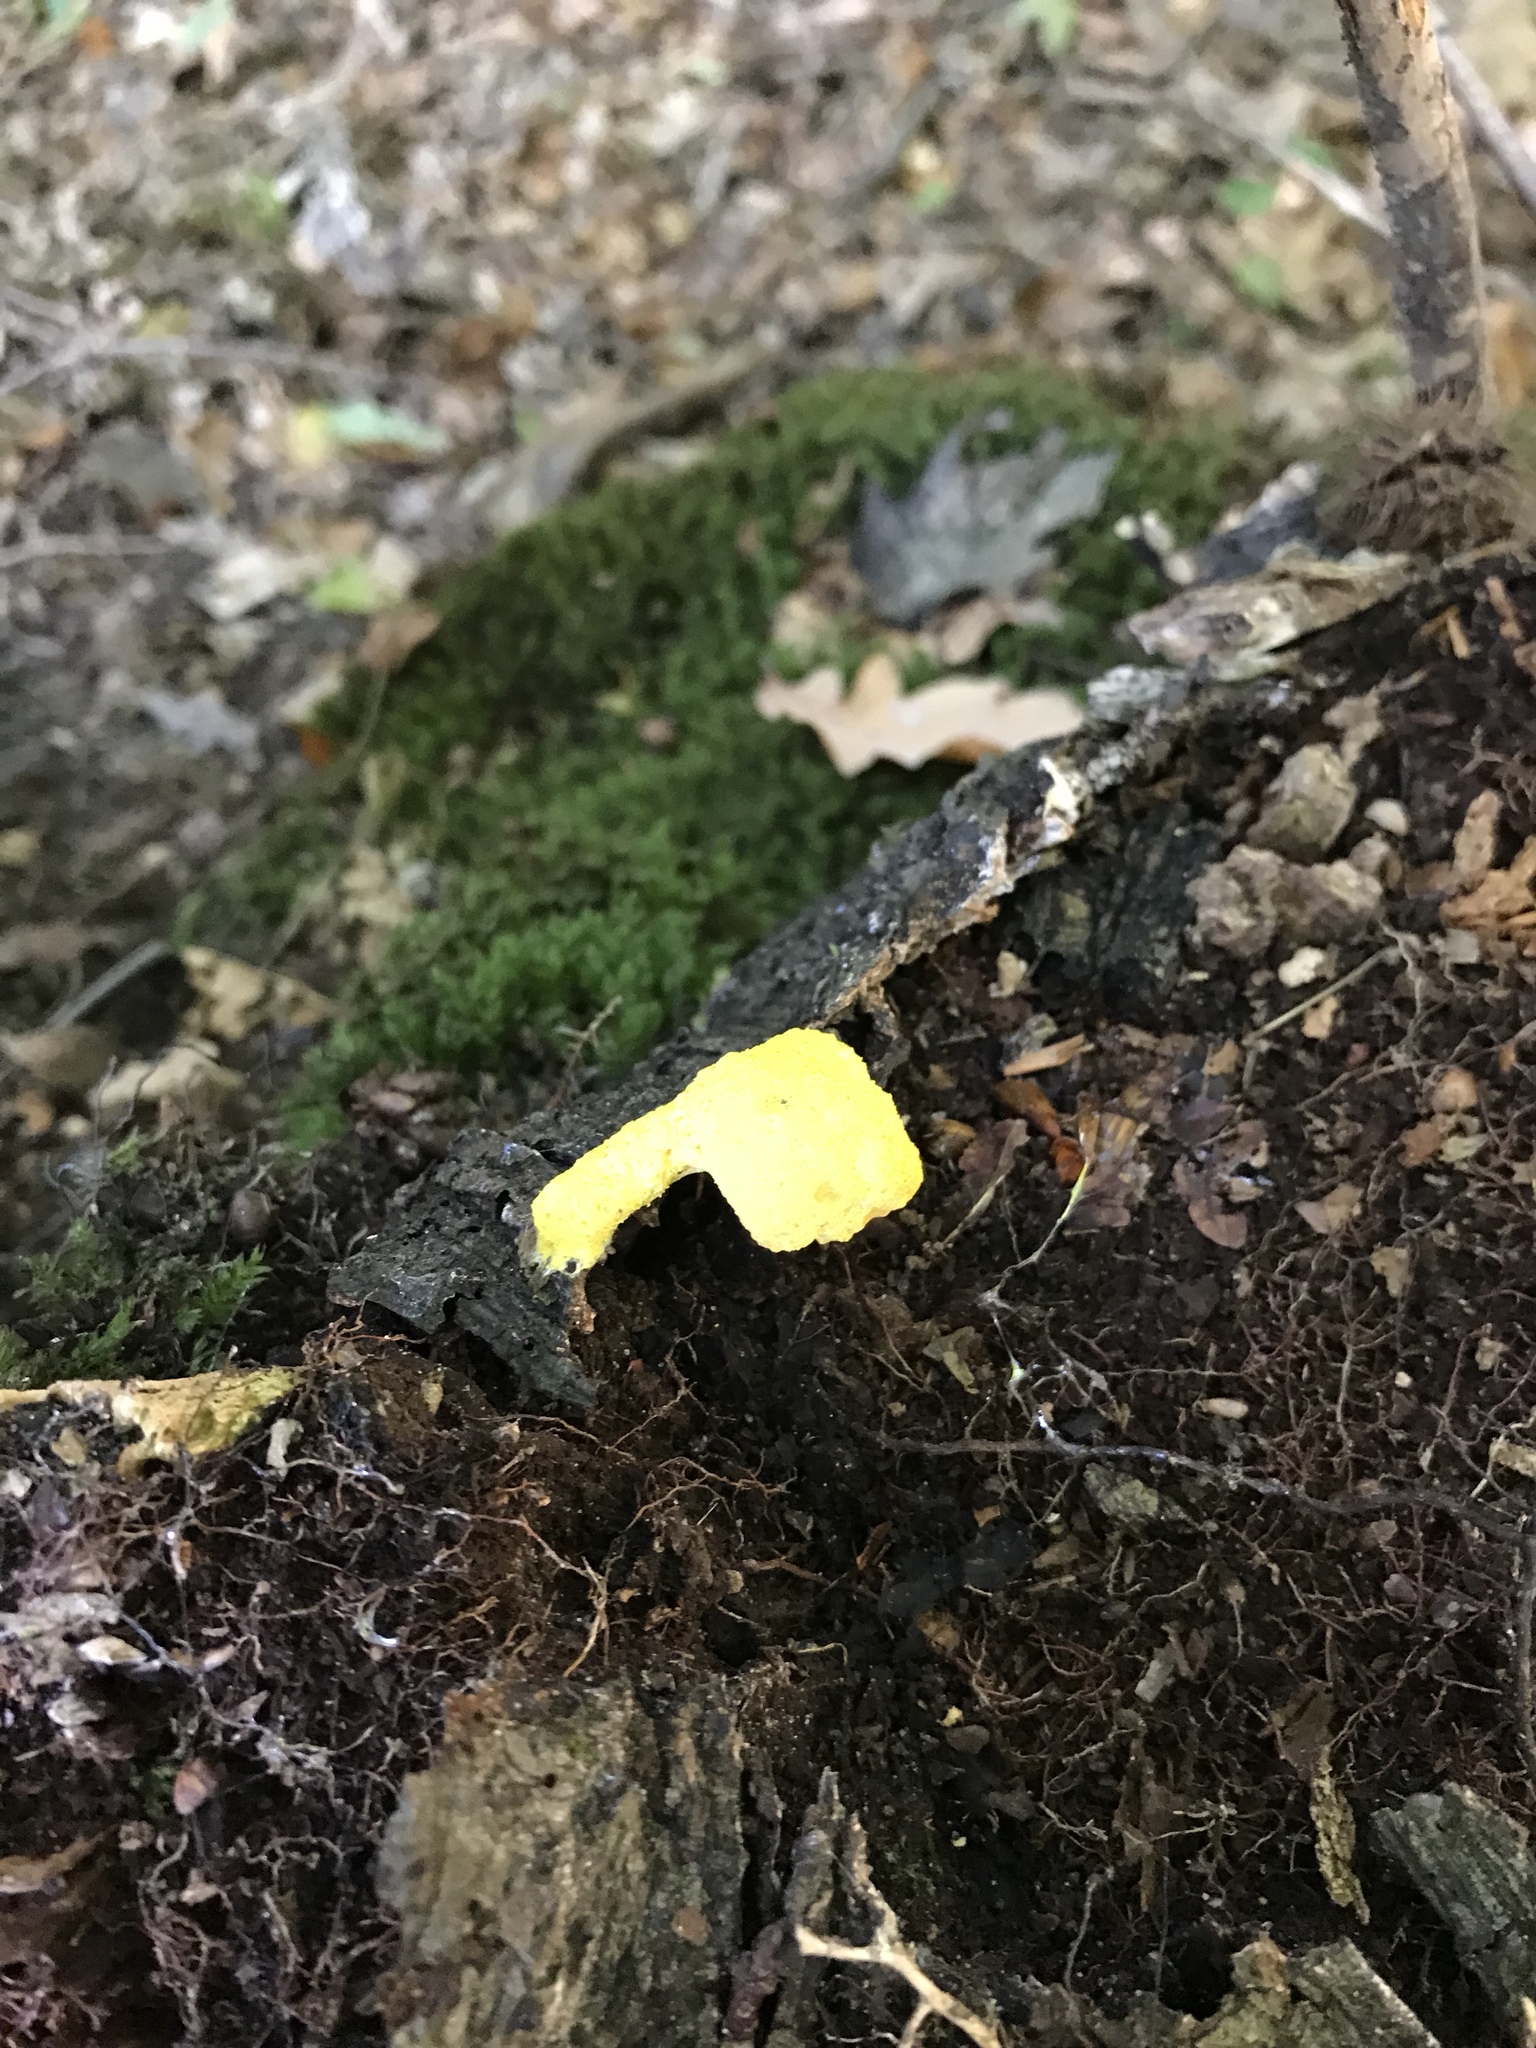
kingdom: Protozoa
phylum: Mycetozoa
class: Myxomycetes
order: Physarales
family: Physaraceae
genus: Fuligo
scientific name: Fuligo septica
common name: Dog vomit slime mold
